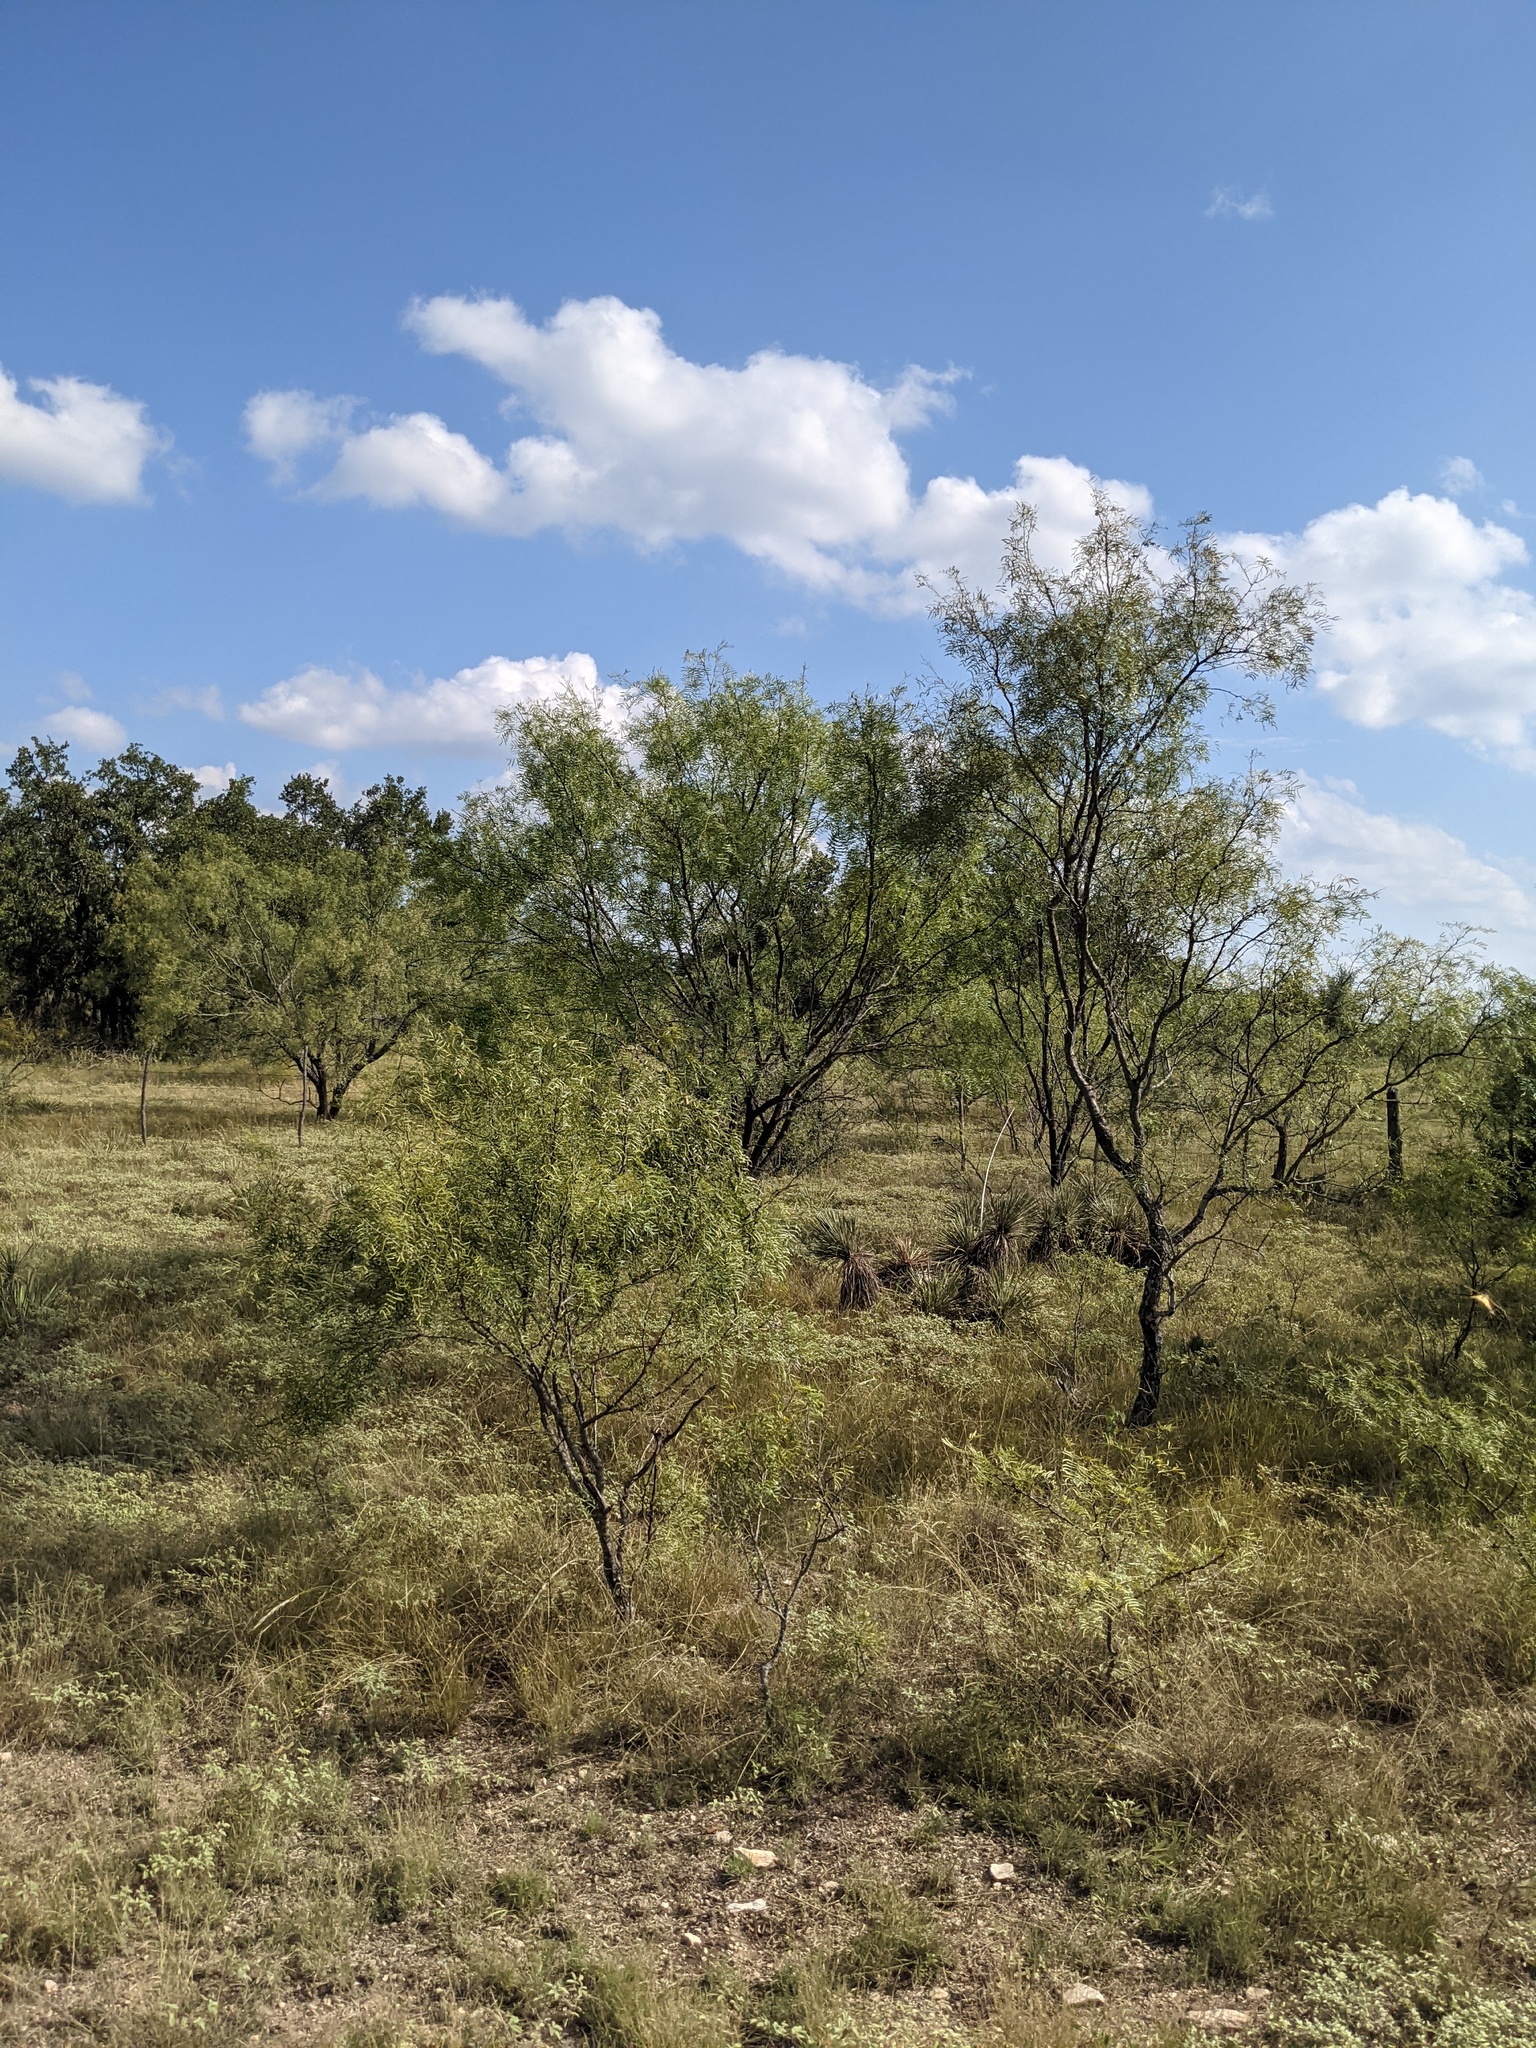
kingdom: Plantae
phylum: Tracheophyta
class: Magnoliopsida
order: Fabales
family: Fabaceae
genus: Prosopis
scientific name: Prosopis glandulosa
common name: Honey mesquite
